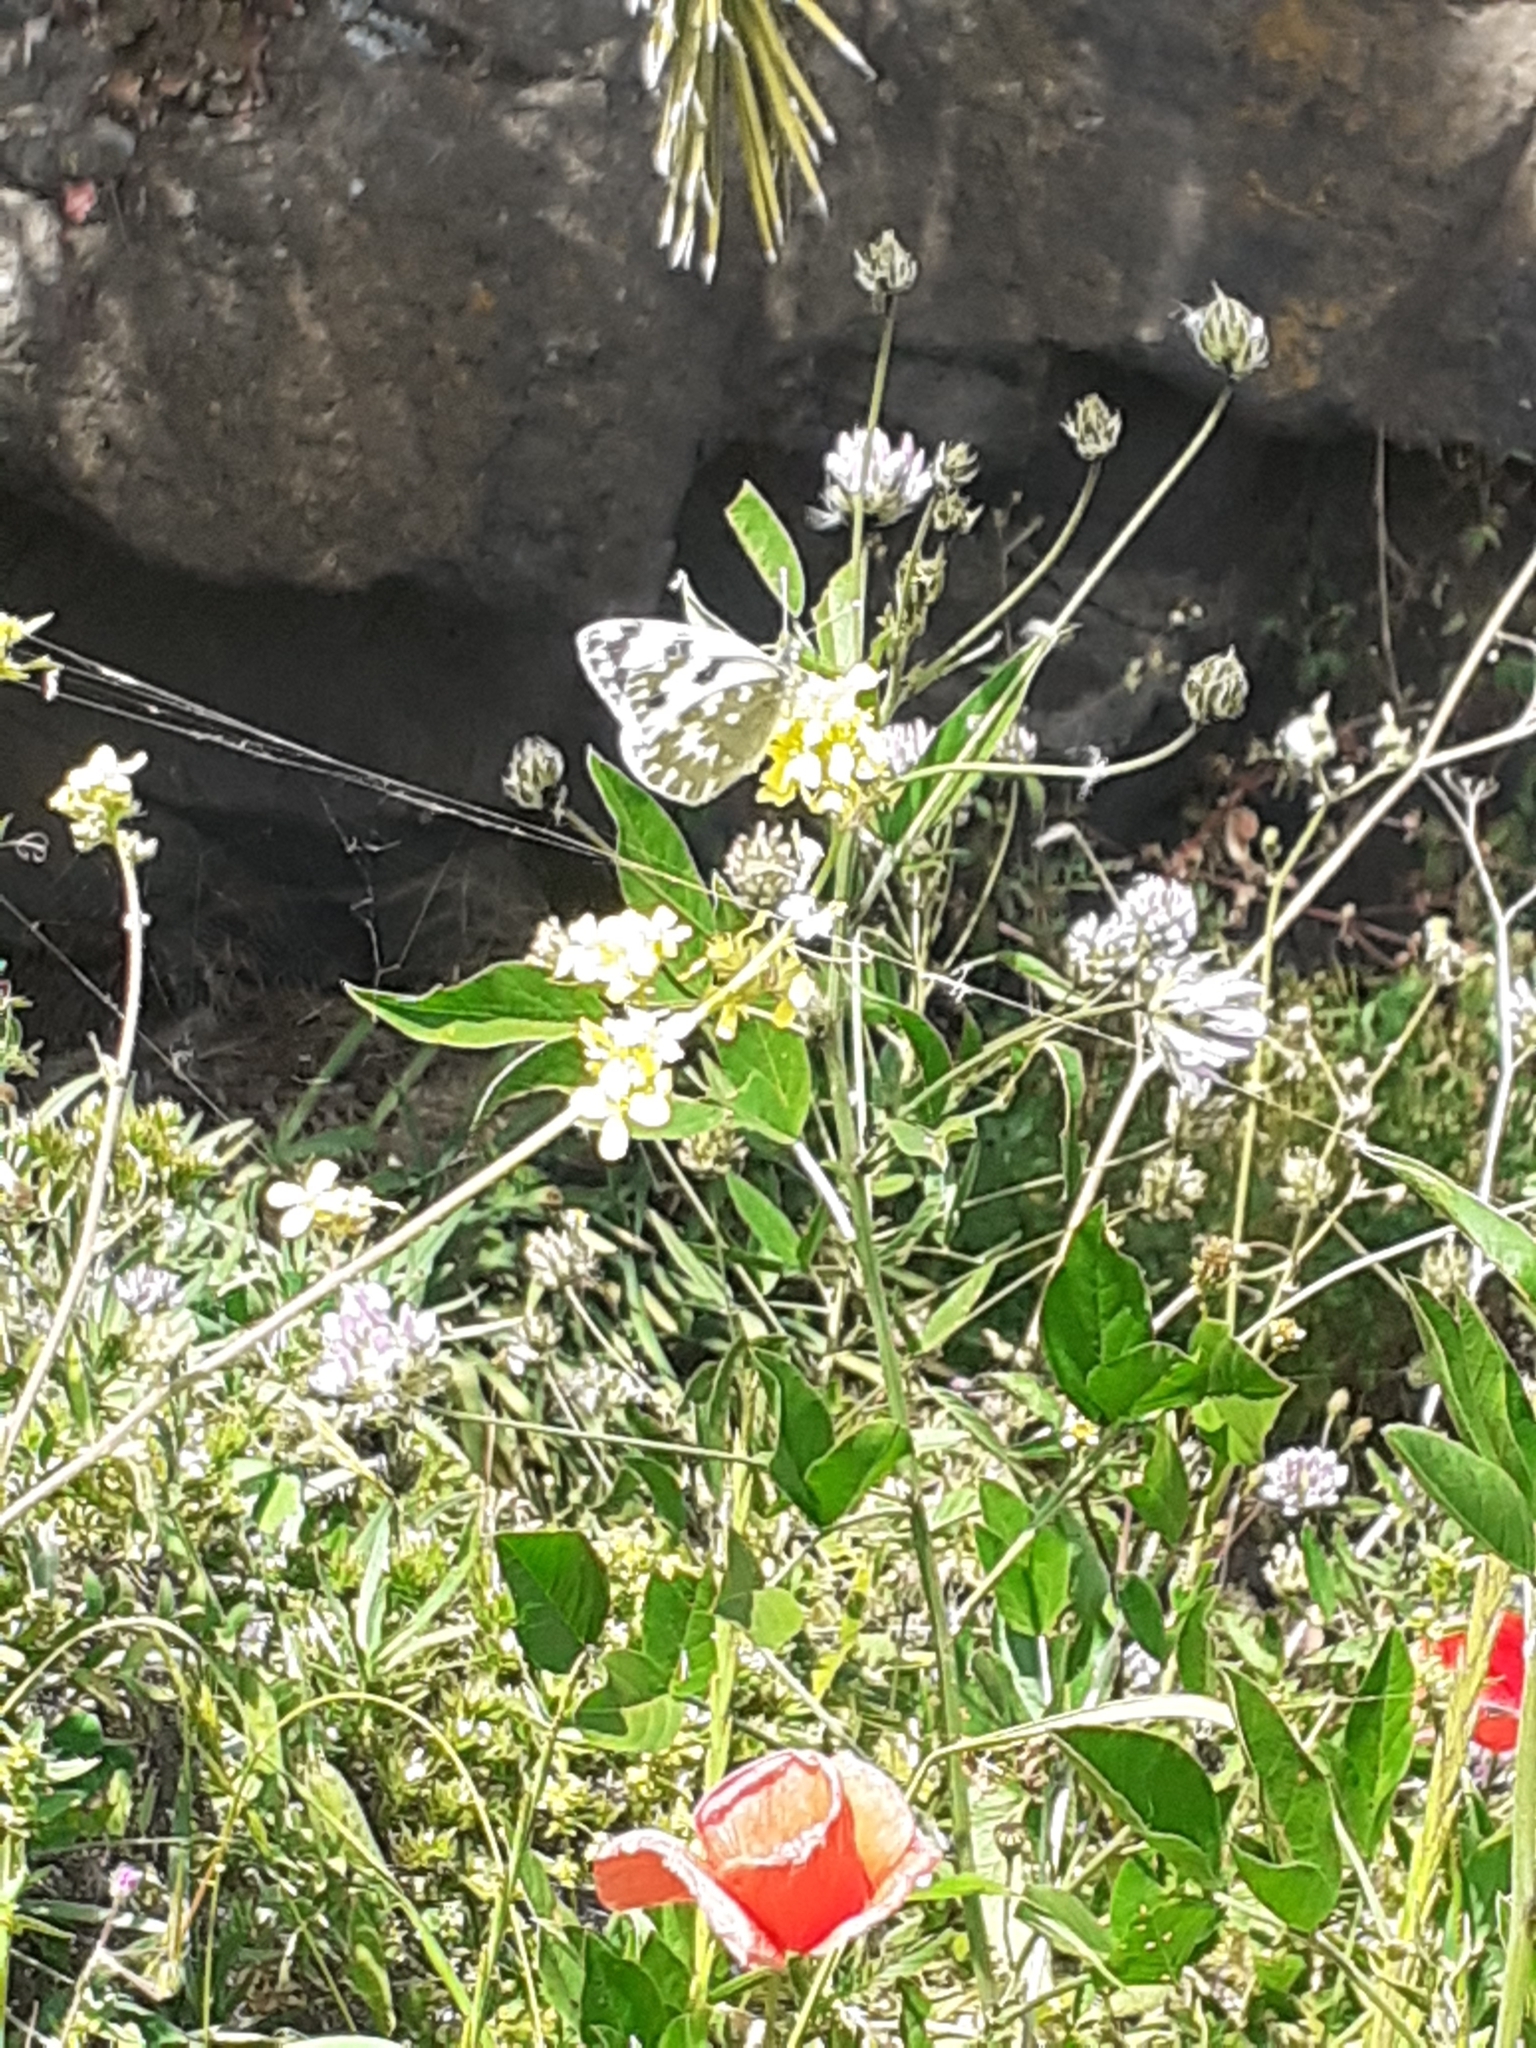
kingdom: Animalia
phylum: Arthropoda
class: Insecta
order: Lepidoptera
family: Pieridae
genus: Pontia
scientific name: Pontia daplidice
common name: Bath white
